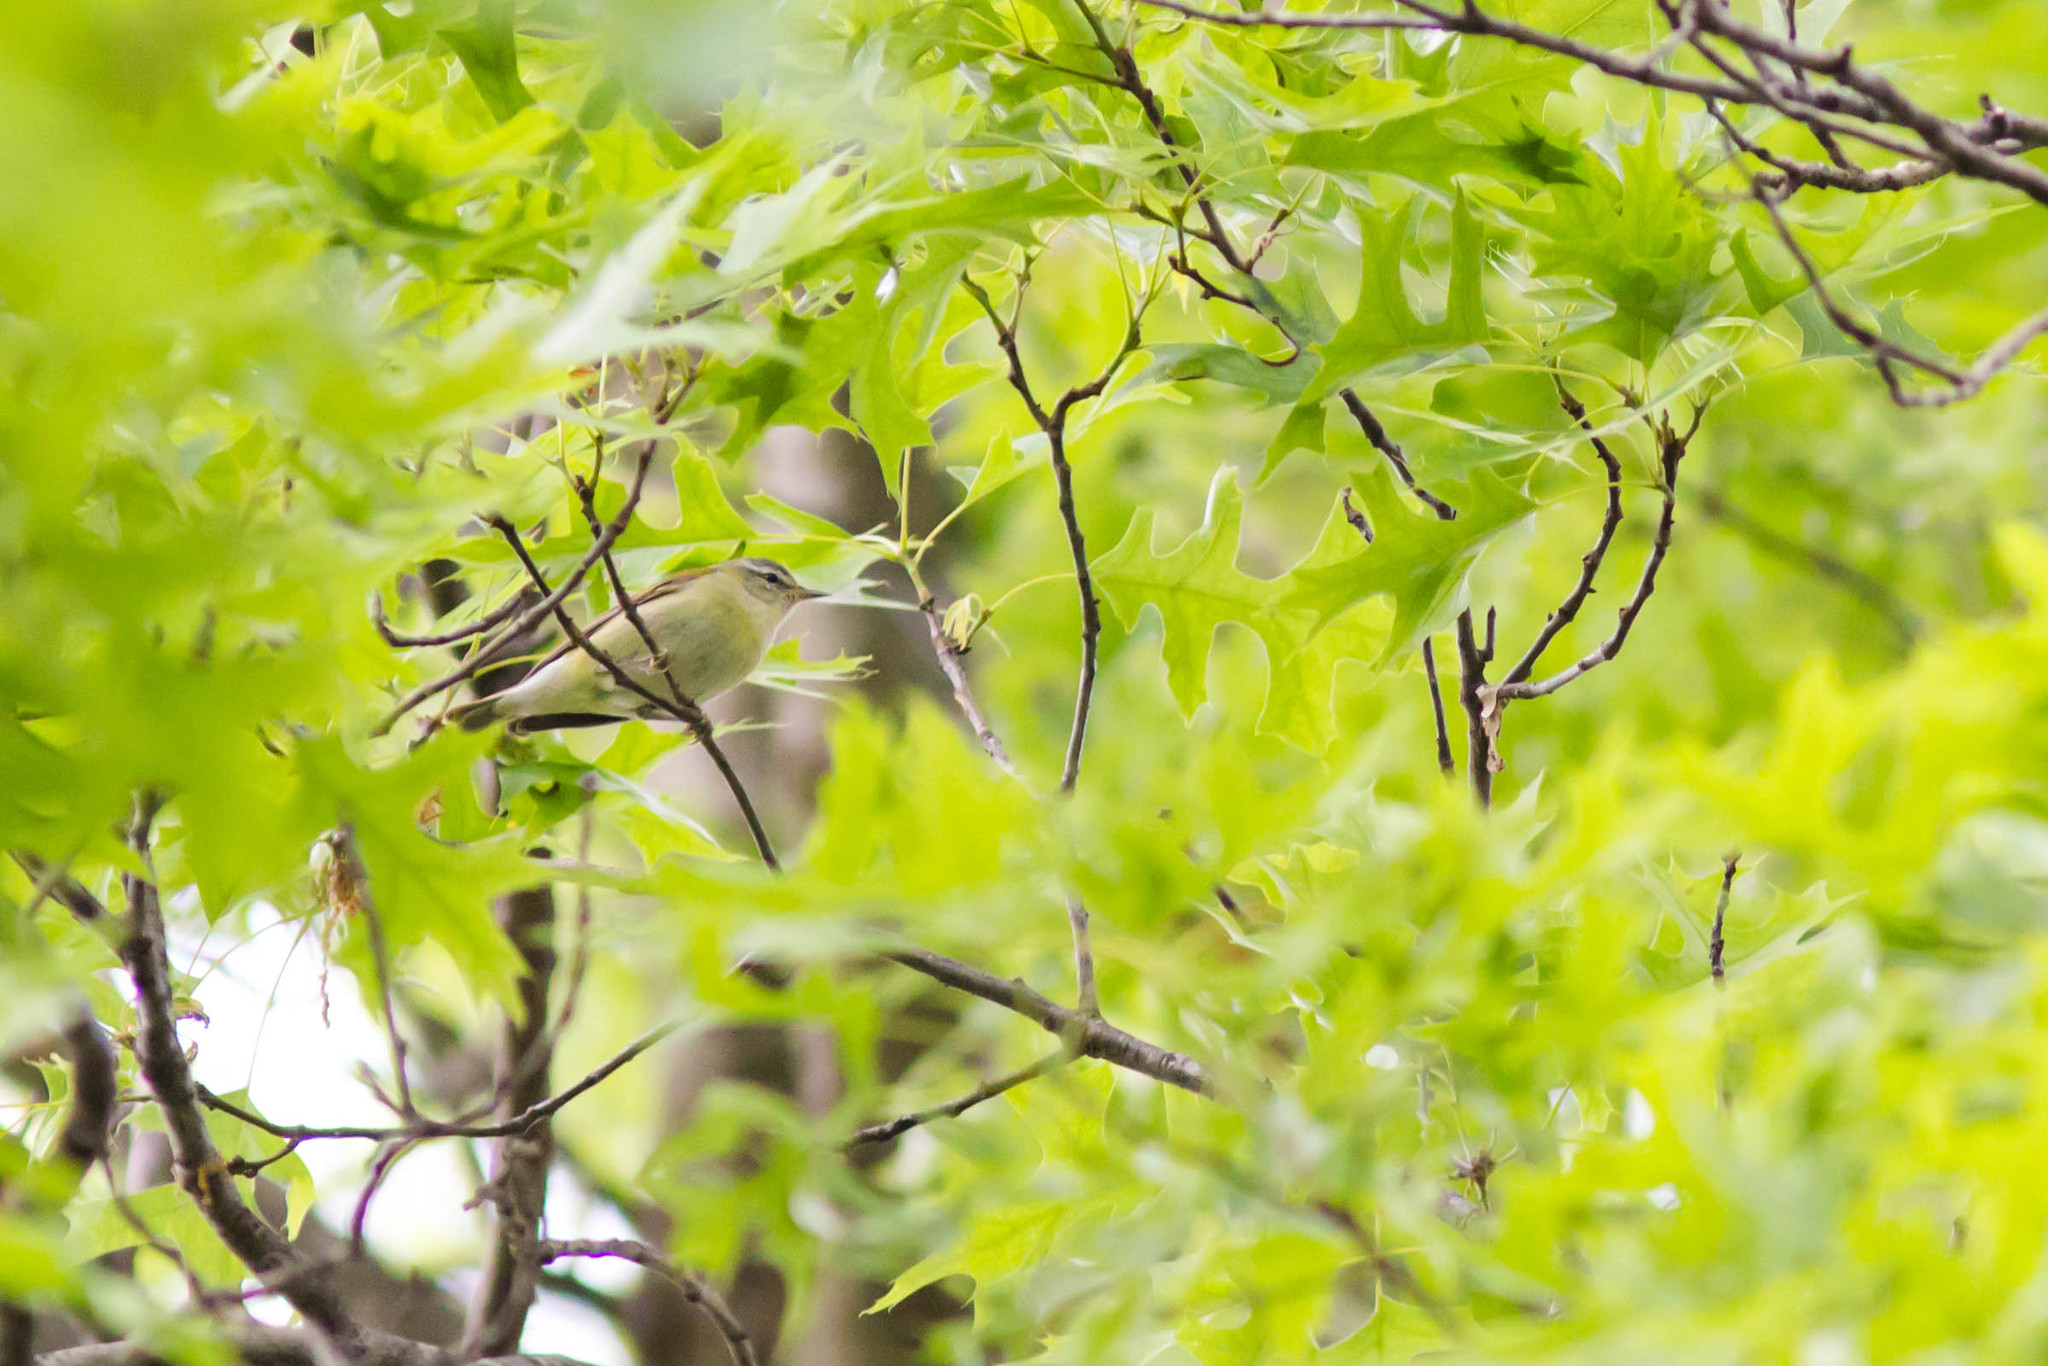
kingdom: Animalia
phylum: Chordata
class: Aves
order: Passeriformes
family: Parulidae
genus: Leiothlypis
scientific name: Leiothlypis peregrina
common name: Tennessee warbler
